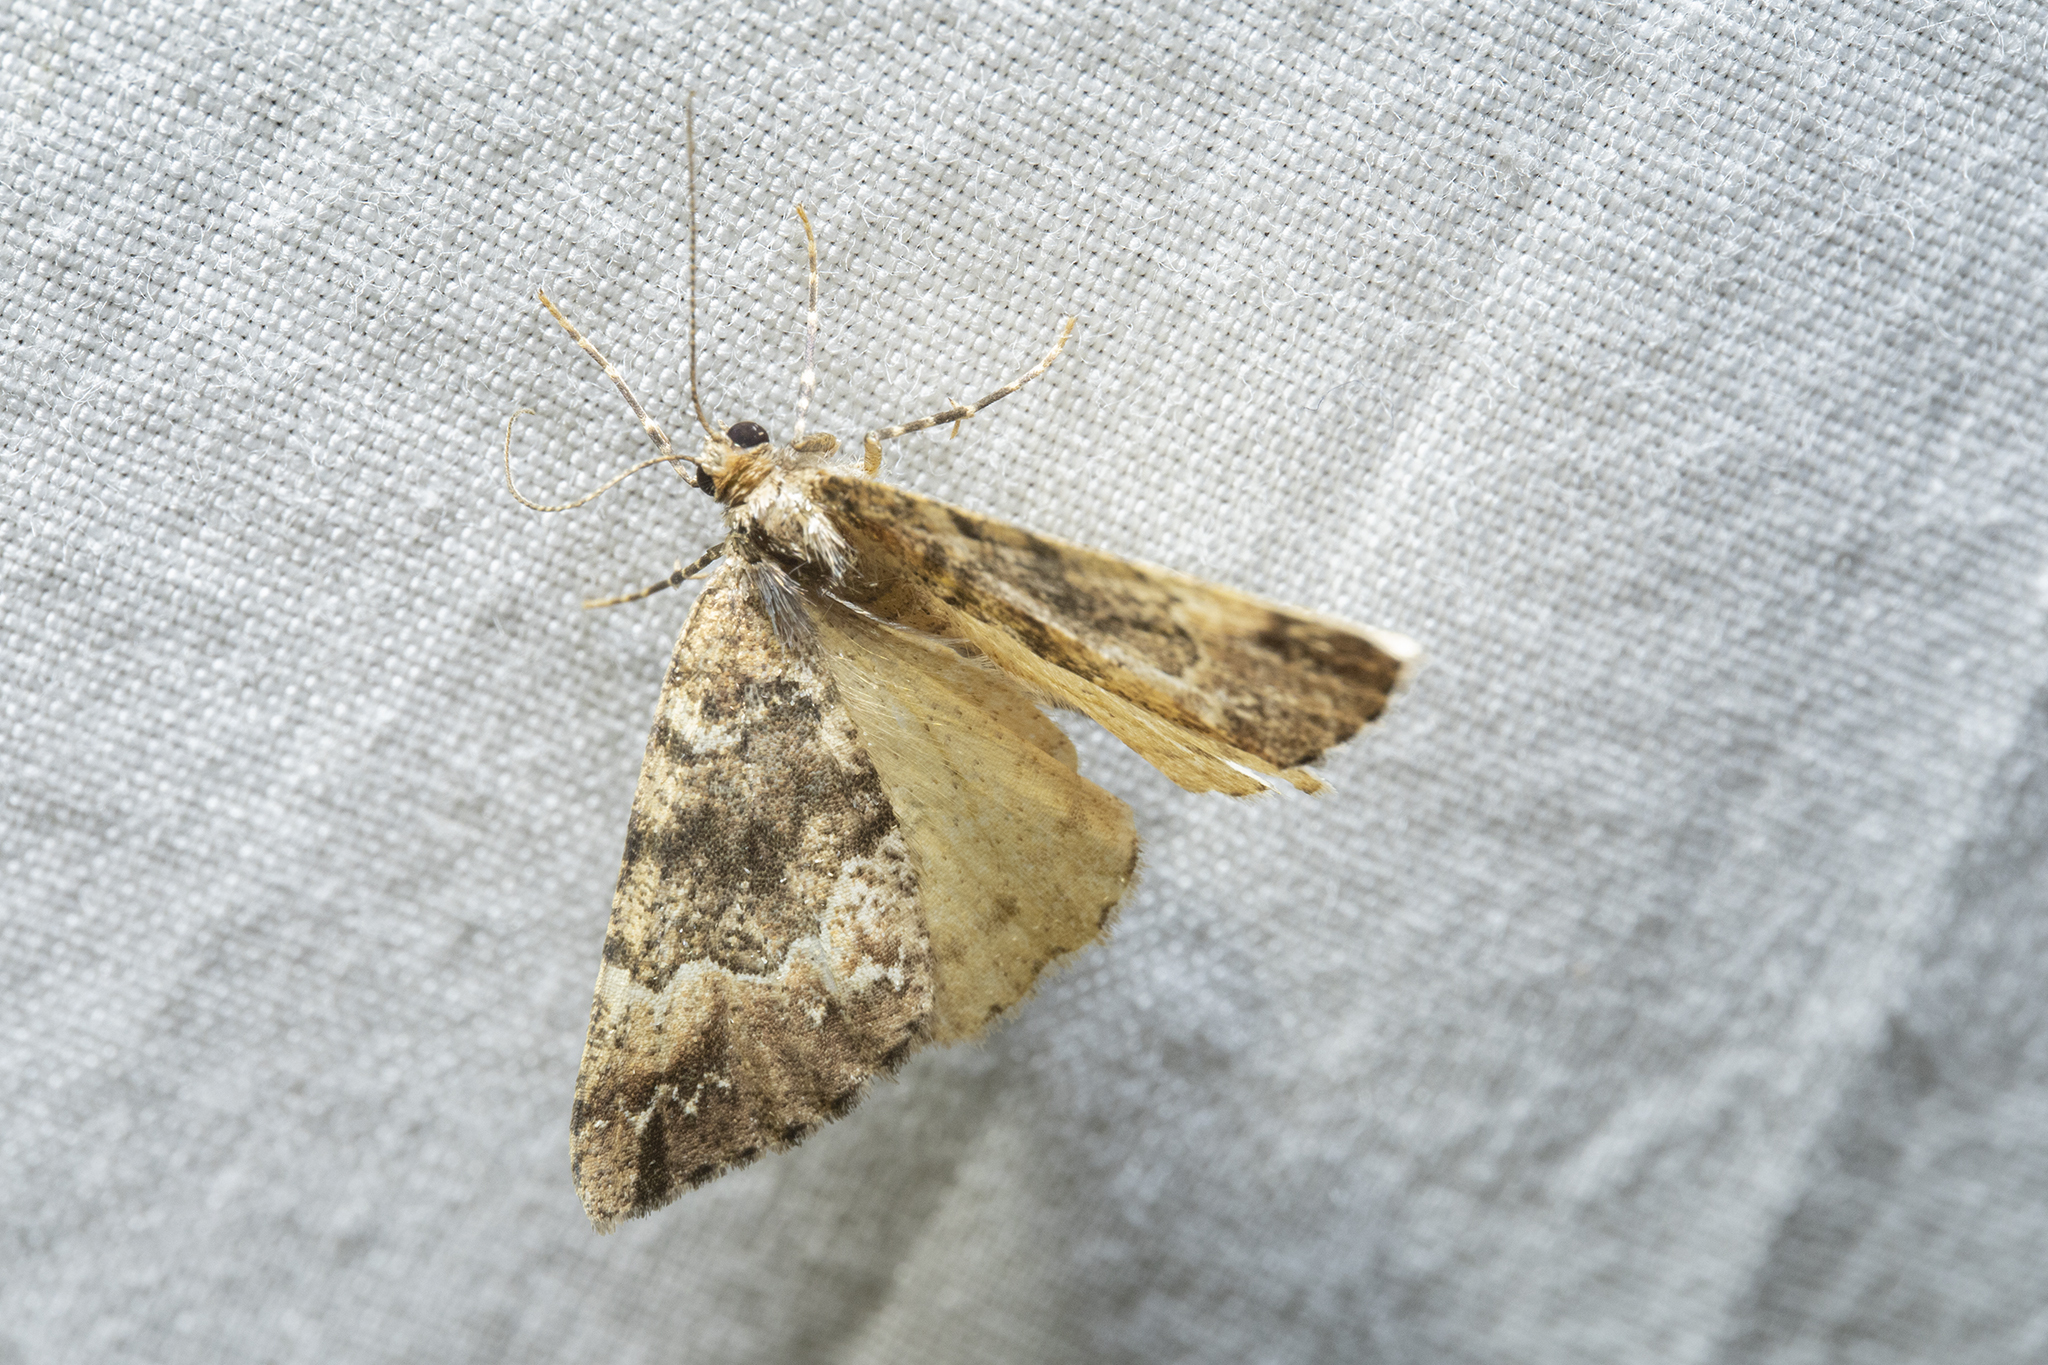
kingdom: Animalia
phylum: Arthropoda
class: Insecta
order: Lepidoptera
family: Geometridae
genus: Pseudocoremia
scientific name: Pseudocoremia insignita
